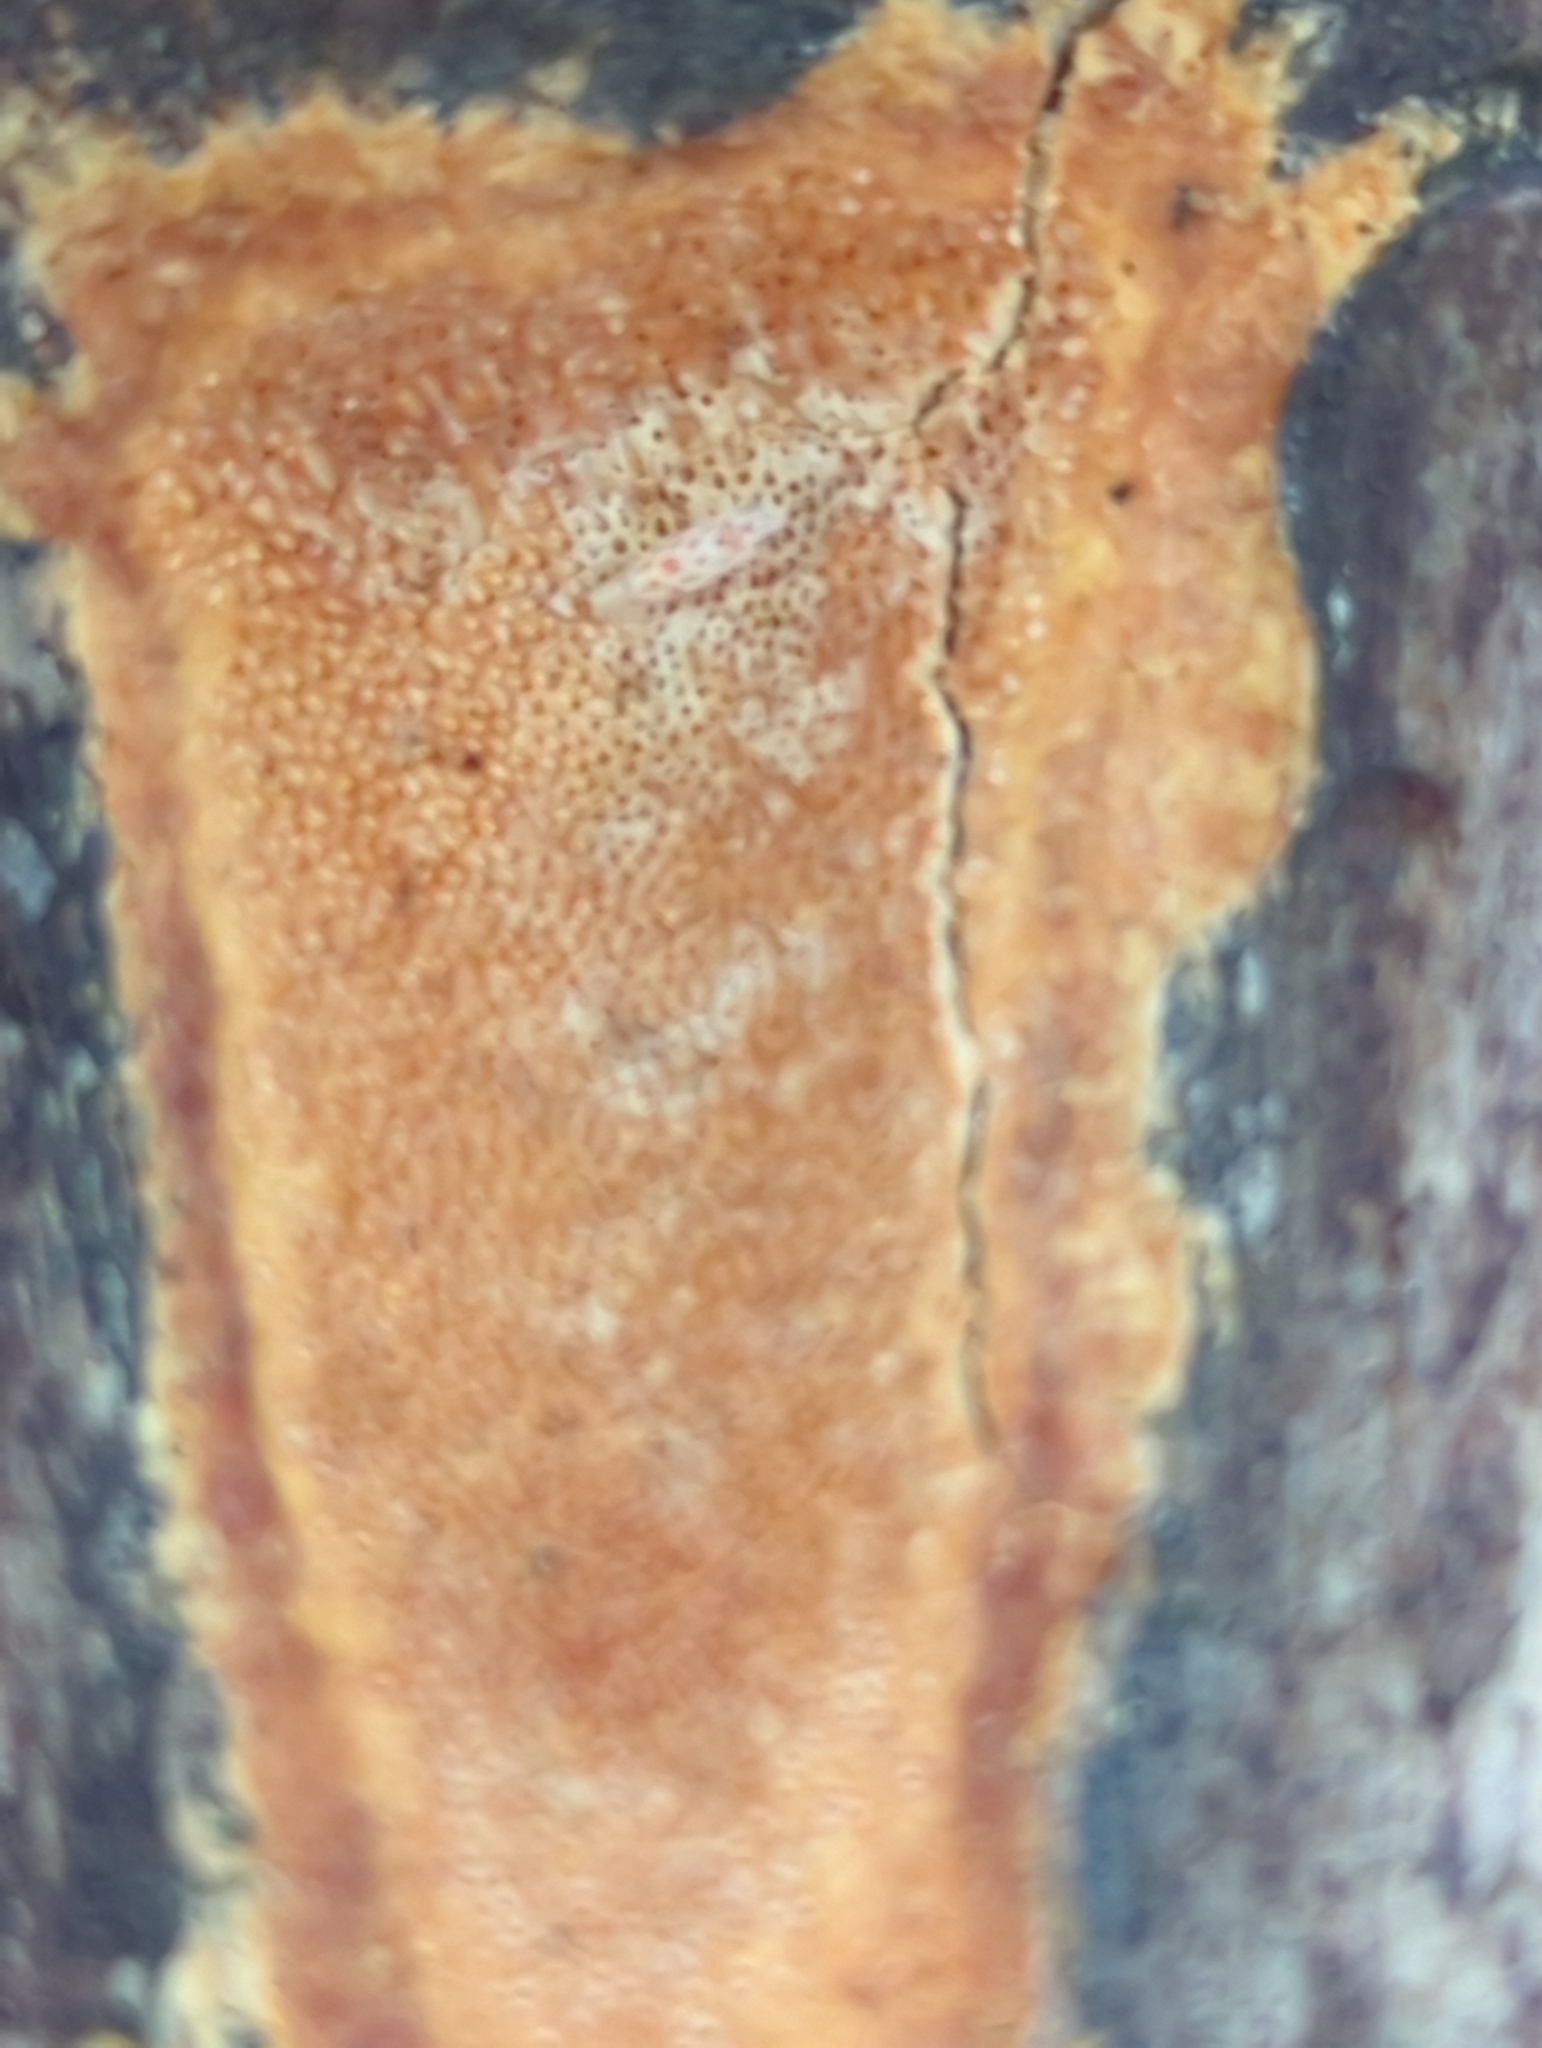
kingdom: Fungi
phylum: Basidiomycota
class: Agaricomycetes
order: Polyporales
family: Polyporaceae
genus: Poriella
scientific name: Poriella subacida
